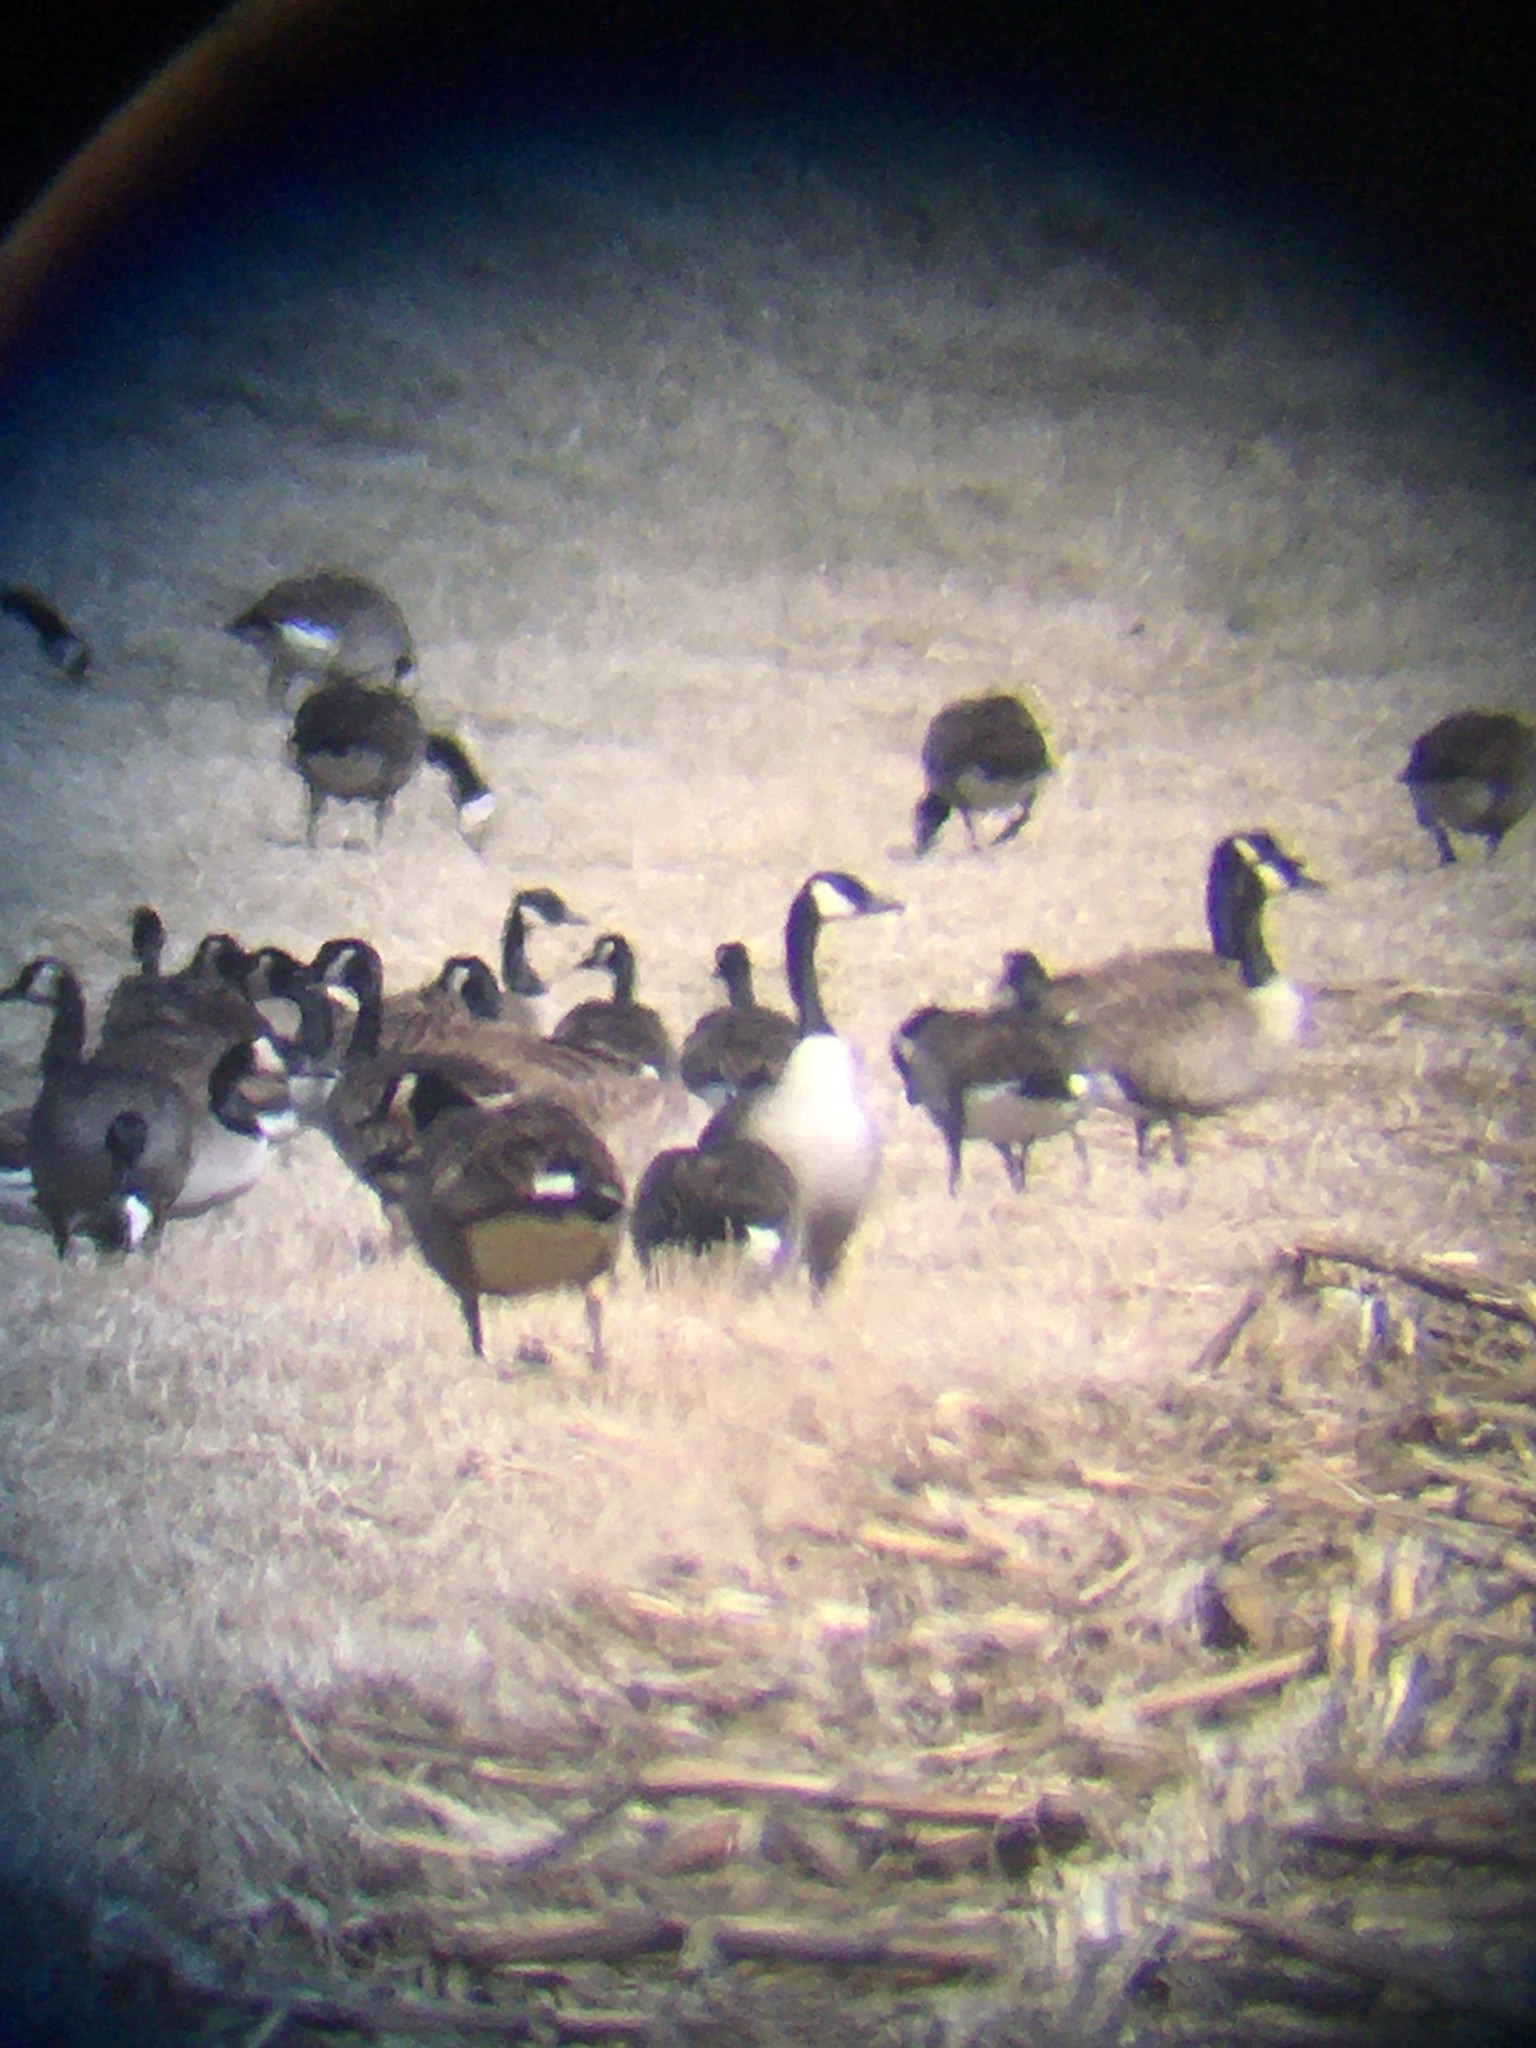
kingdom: Animalia
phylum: Chordata
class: Aves
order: Anseriformes
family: Anatidae
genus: Branta
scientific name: Branta canadensis
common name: Canada goose
